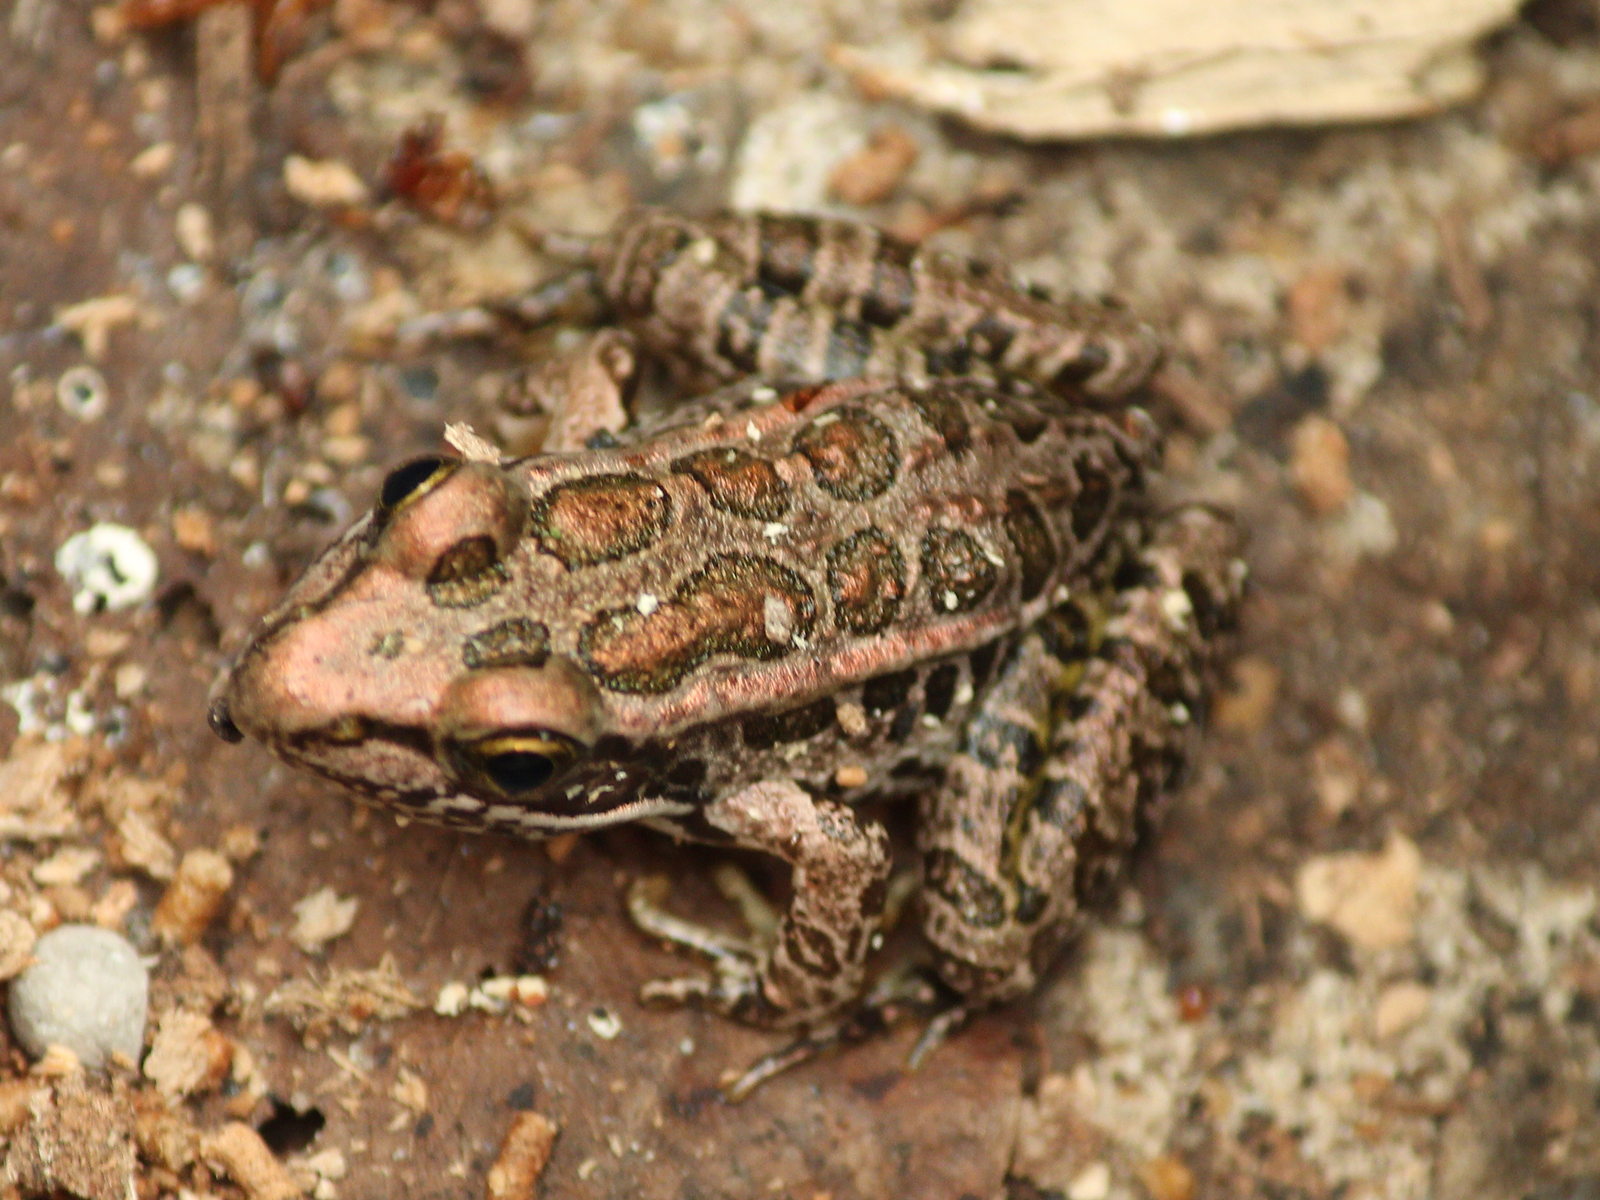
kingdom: Animalia
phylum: Chordata
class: Amphibia
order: Anura
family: Ranidae
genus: Lithobates
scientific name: Lithobates palustris
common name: Pickerel frog
